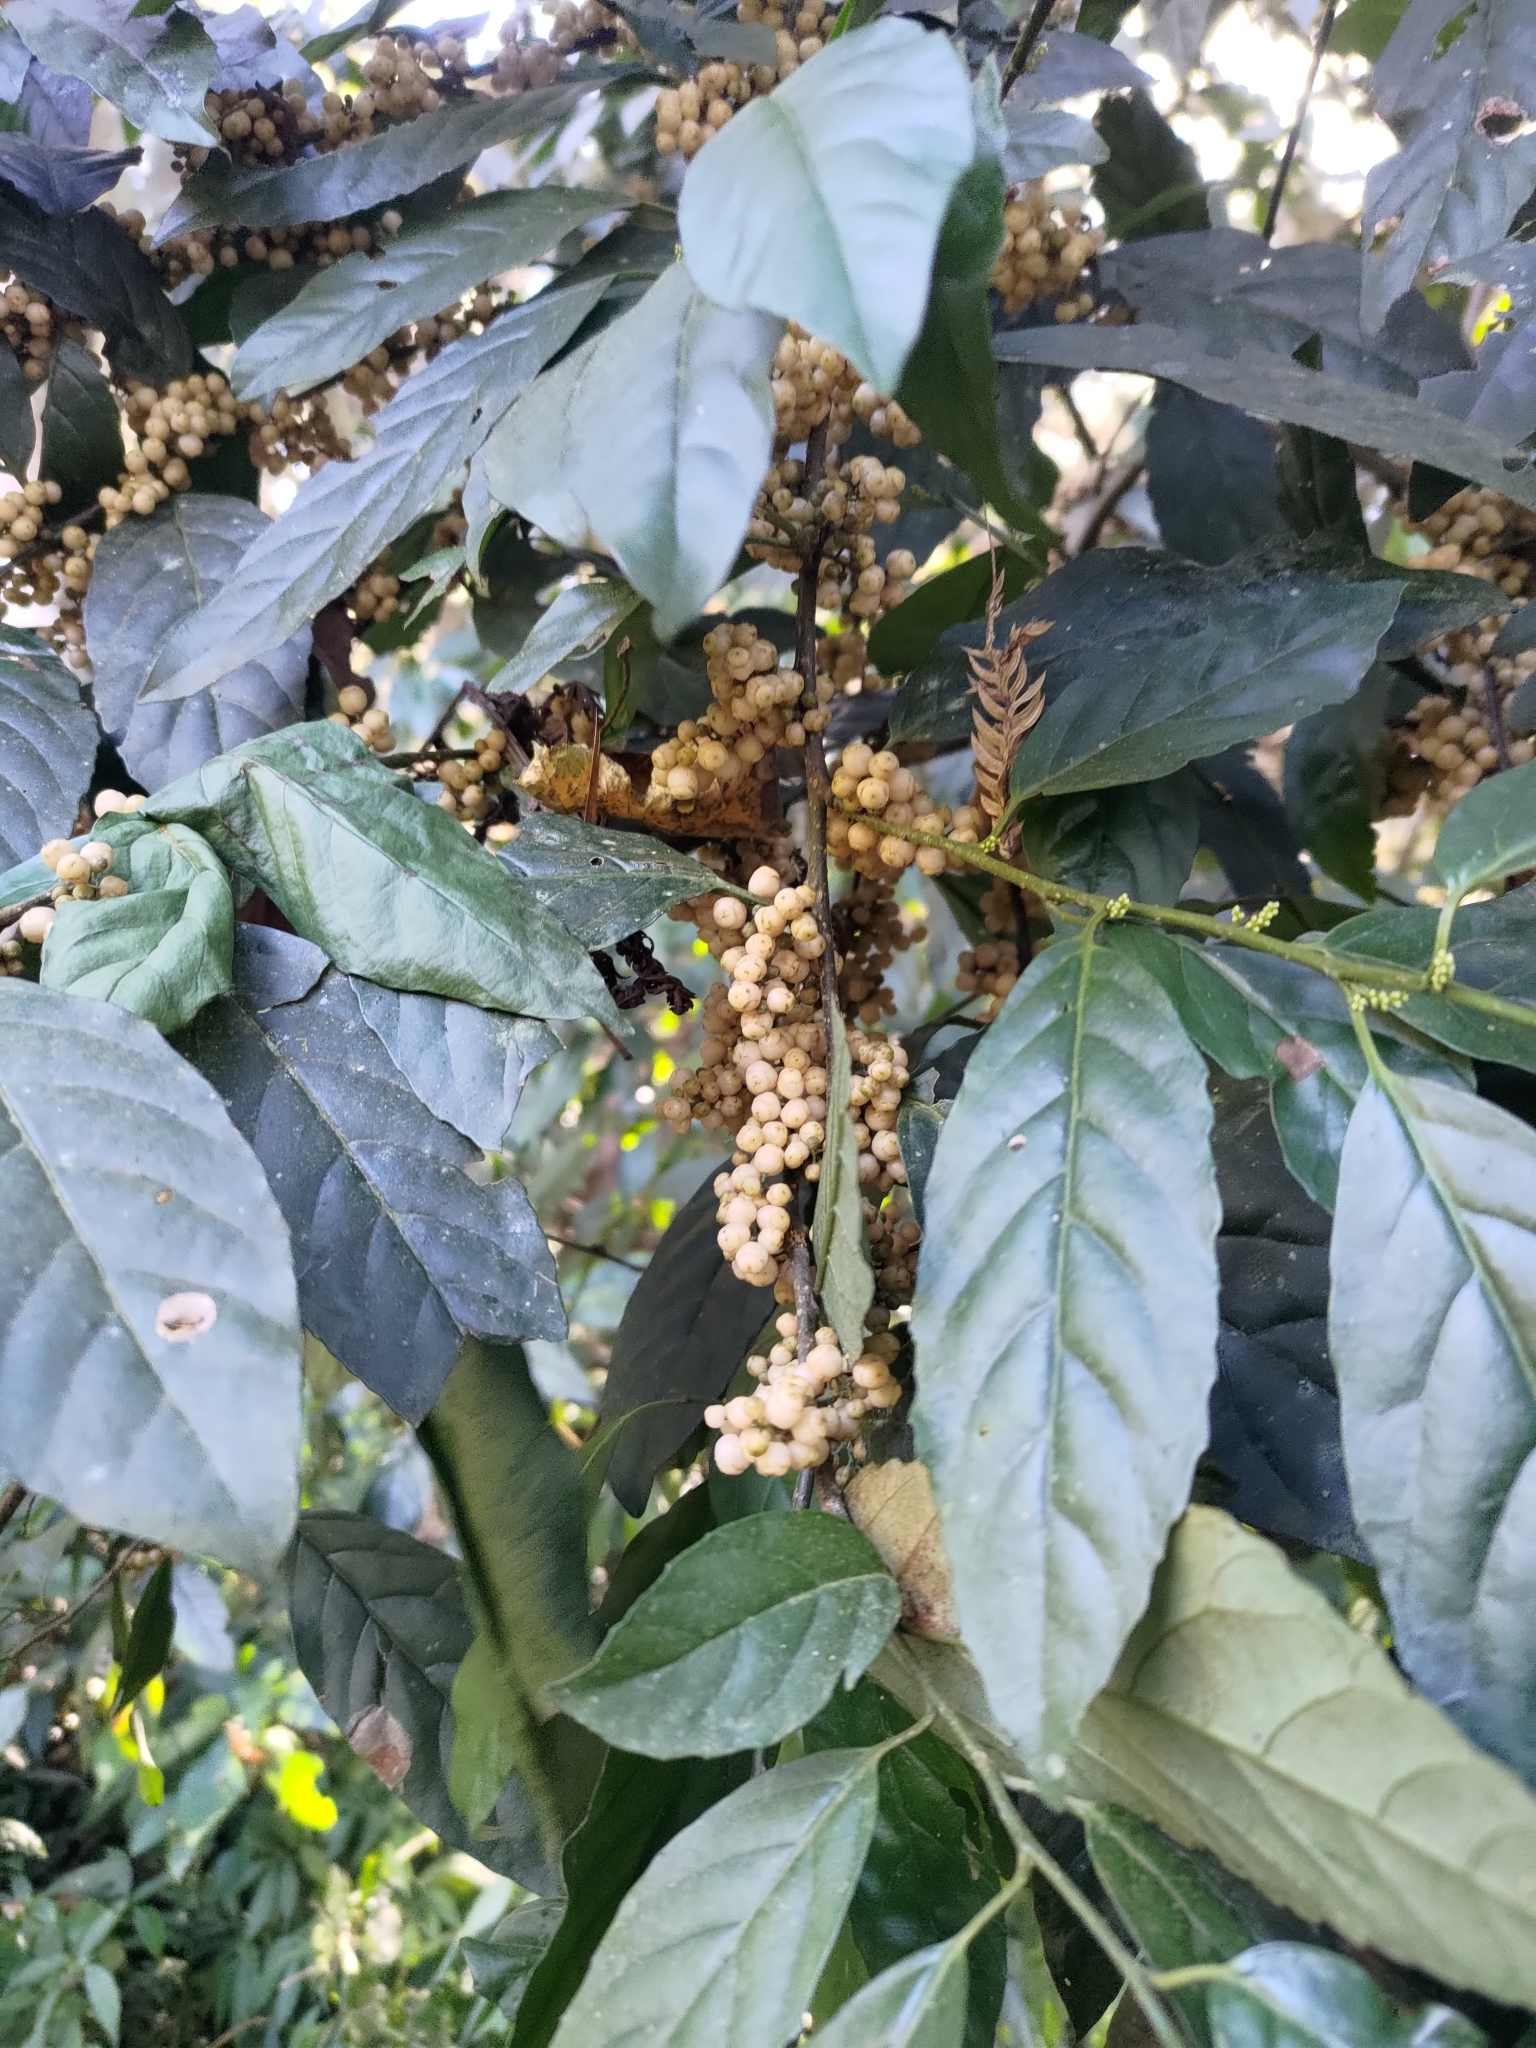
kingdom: Plantae
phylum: Tracheophyta
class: Magnoliopsida
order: Ericales
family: Primulaceae
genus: Maesa
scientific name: Maesa perlaria
